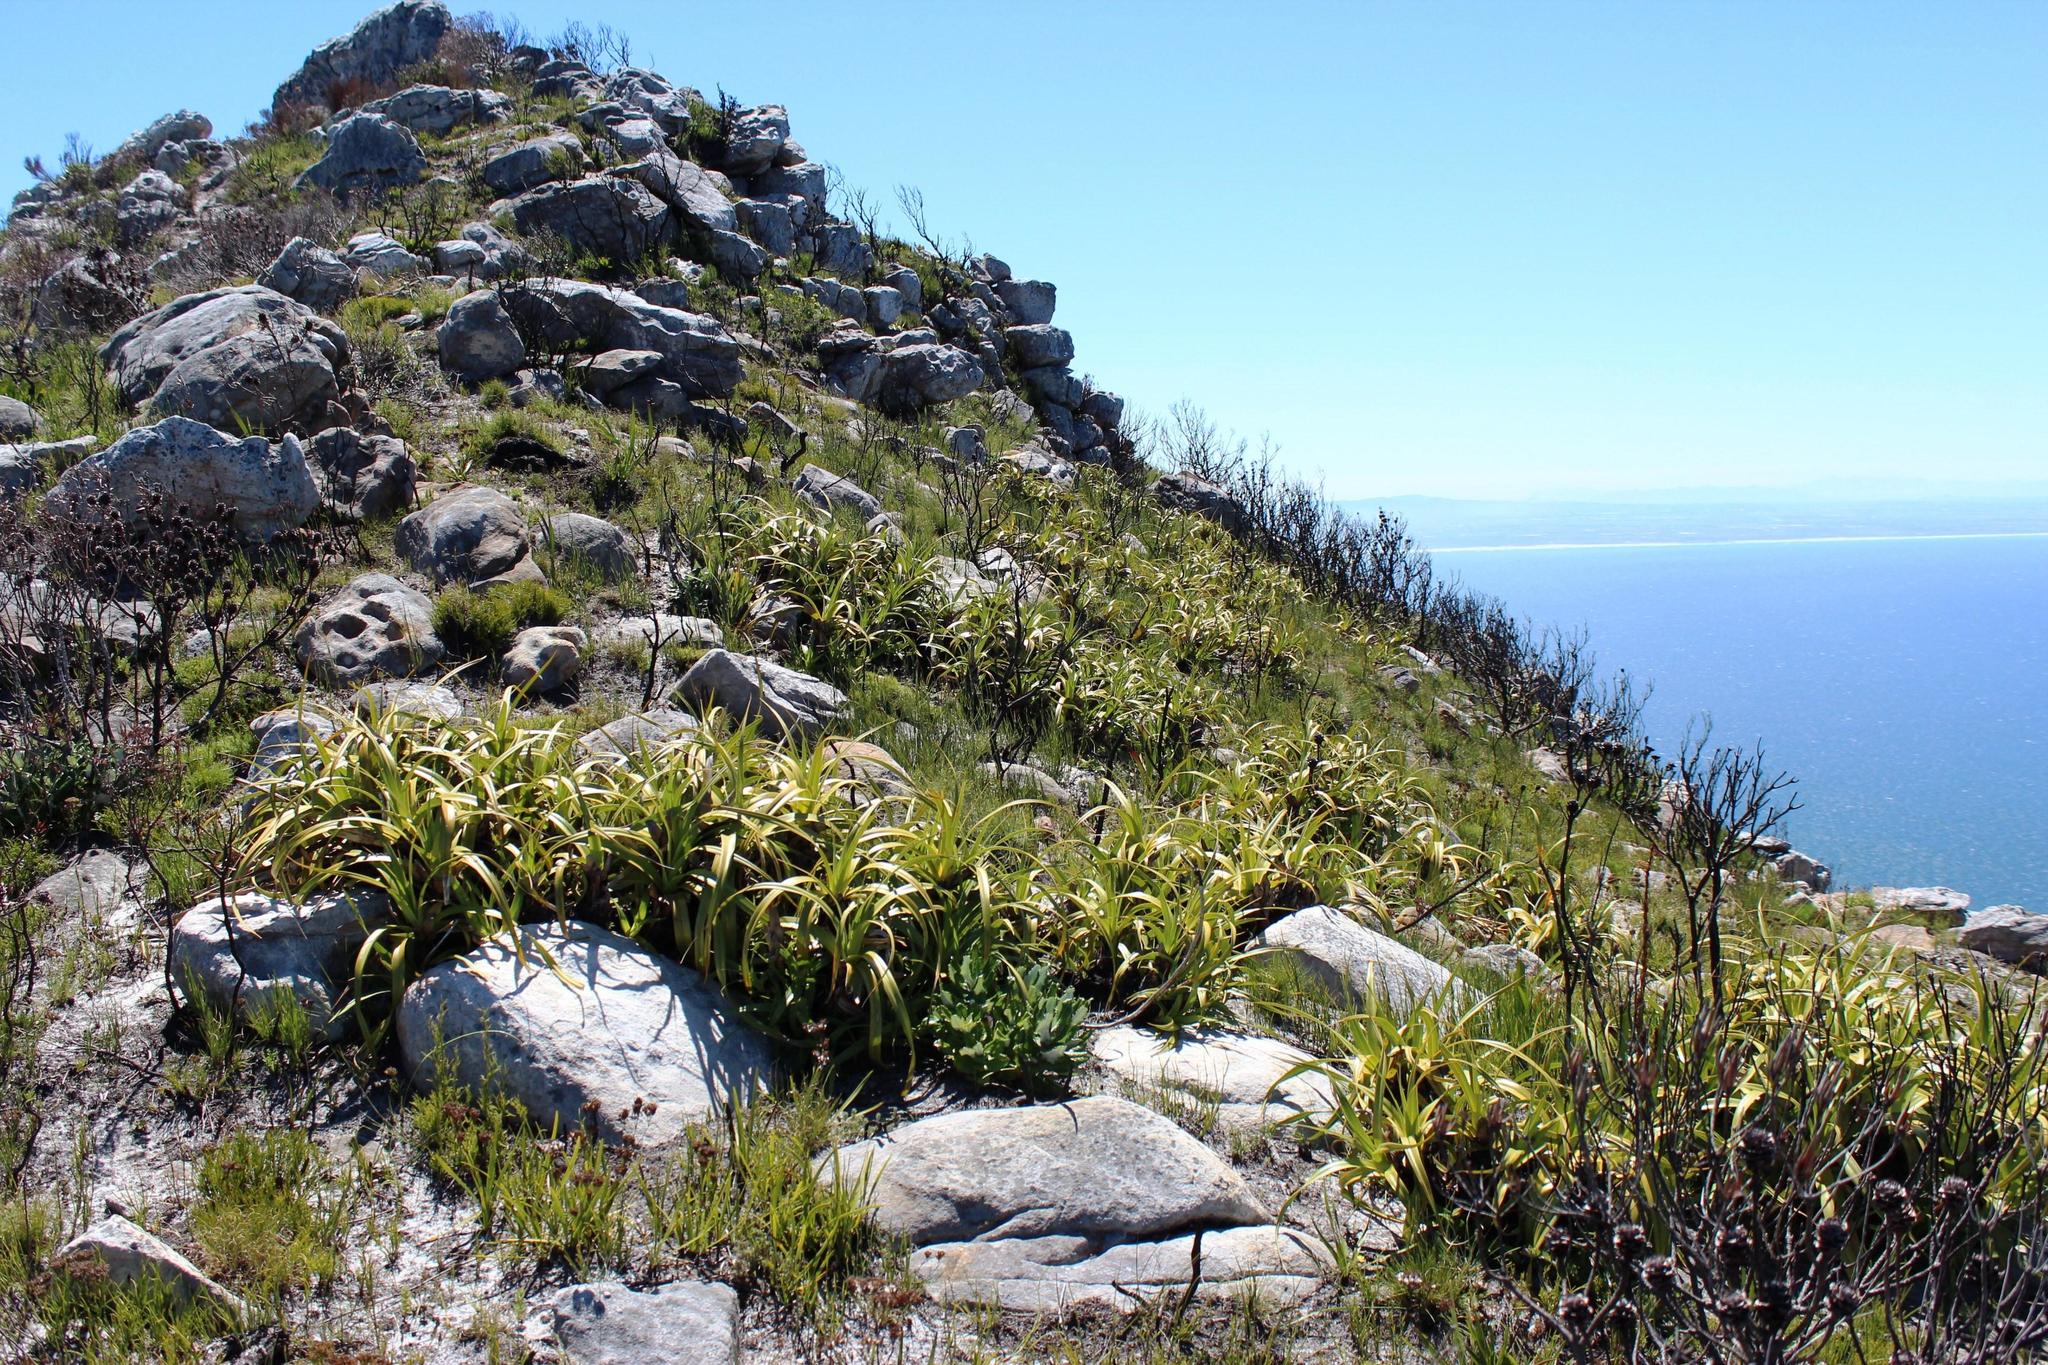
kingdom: Plantae
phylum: Tracheophyta
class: Liliopsida
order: Poales
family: Cyperaceae
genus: Tetraria
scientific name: Tetraria thermalis
